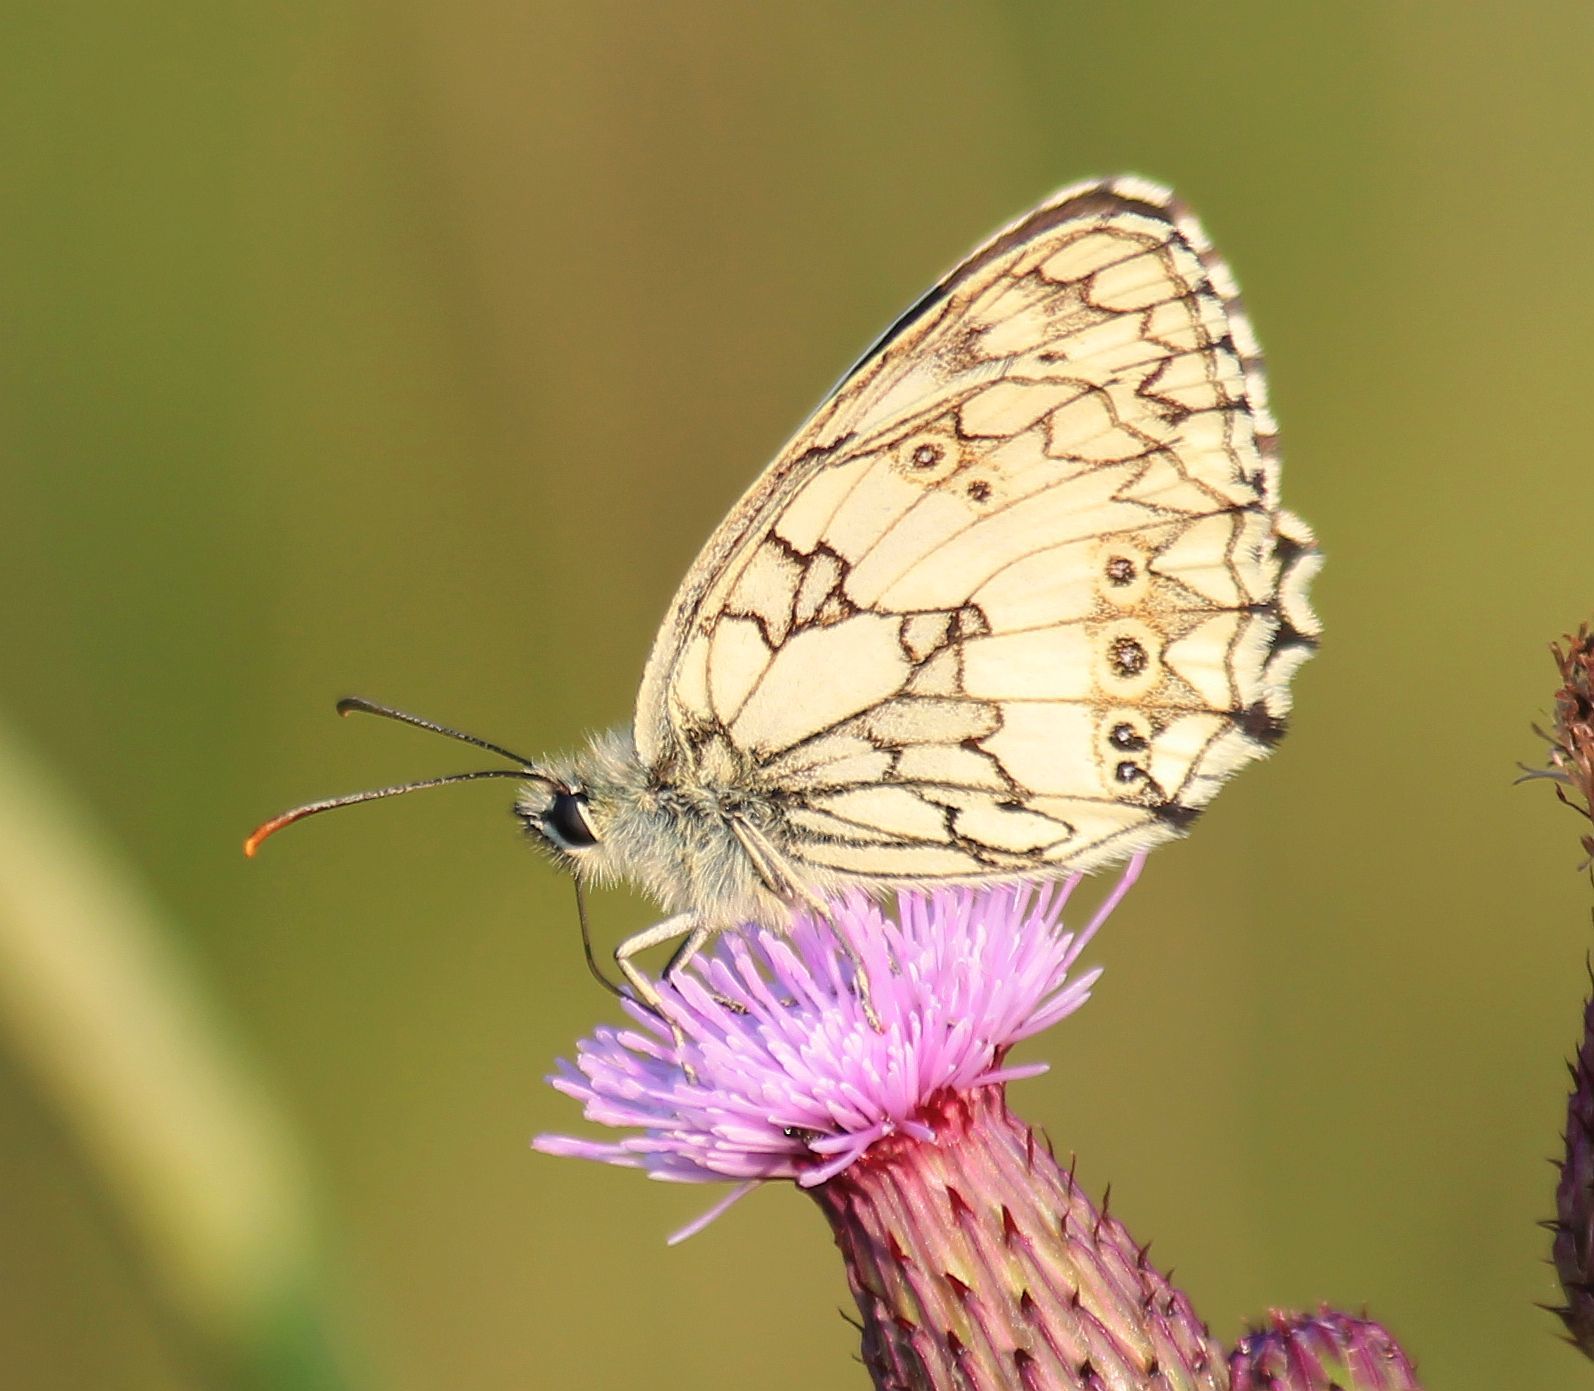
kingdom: Animalia
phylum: Arthropoda
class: Insecta
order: Lepidoptera
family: Nymphalidae
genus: Melanargia
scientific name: Melanargia galathea
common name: Marbled white
